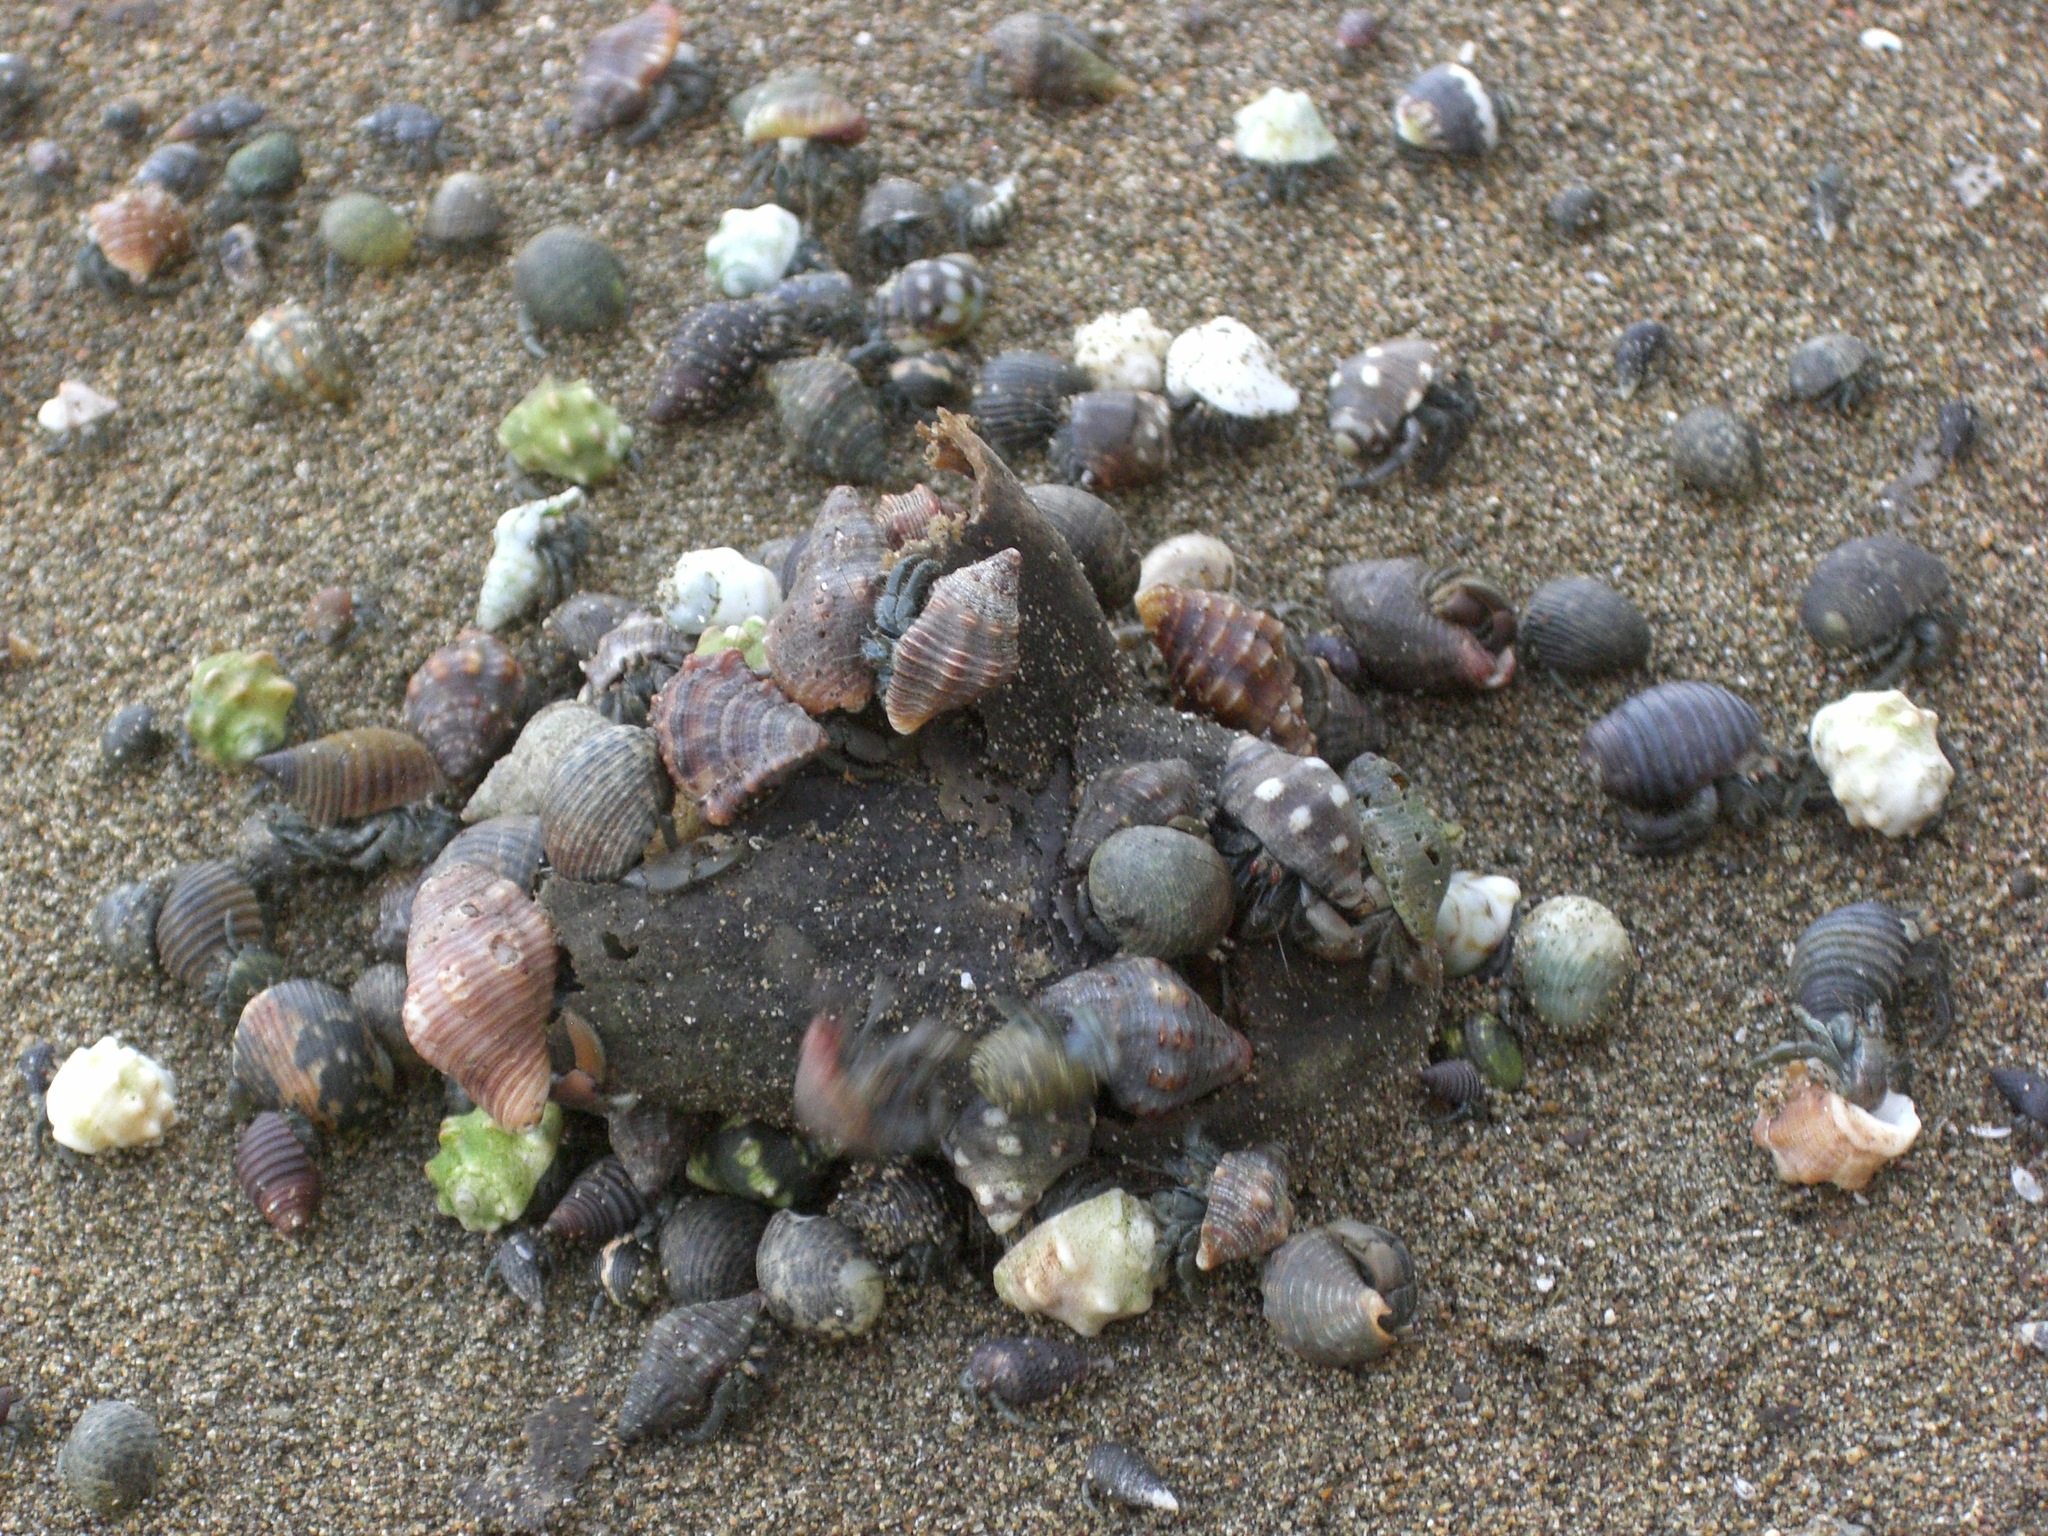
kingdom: Animalia
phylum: Arthropoda
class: Malacostraca
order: Decapoda
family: Coenobitidae
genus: Coenobita
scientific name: Coenobita compressus
